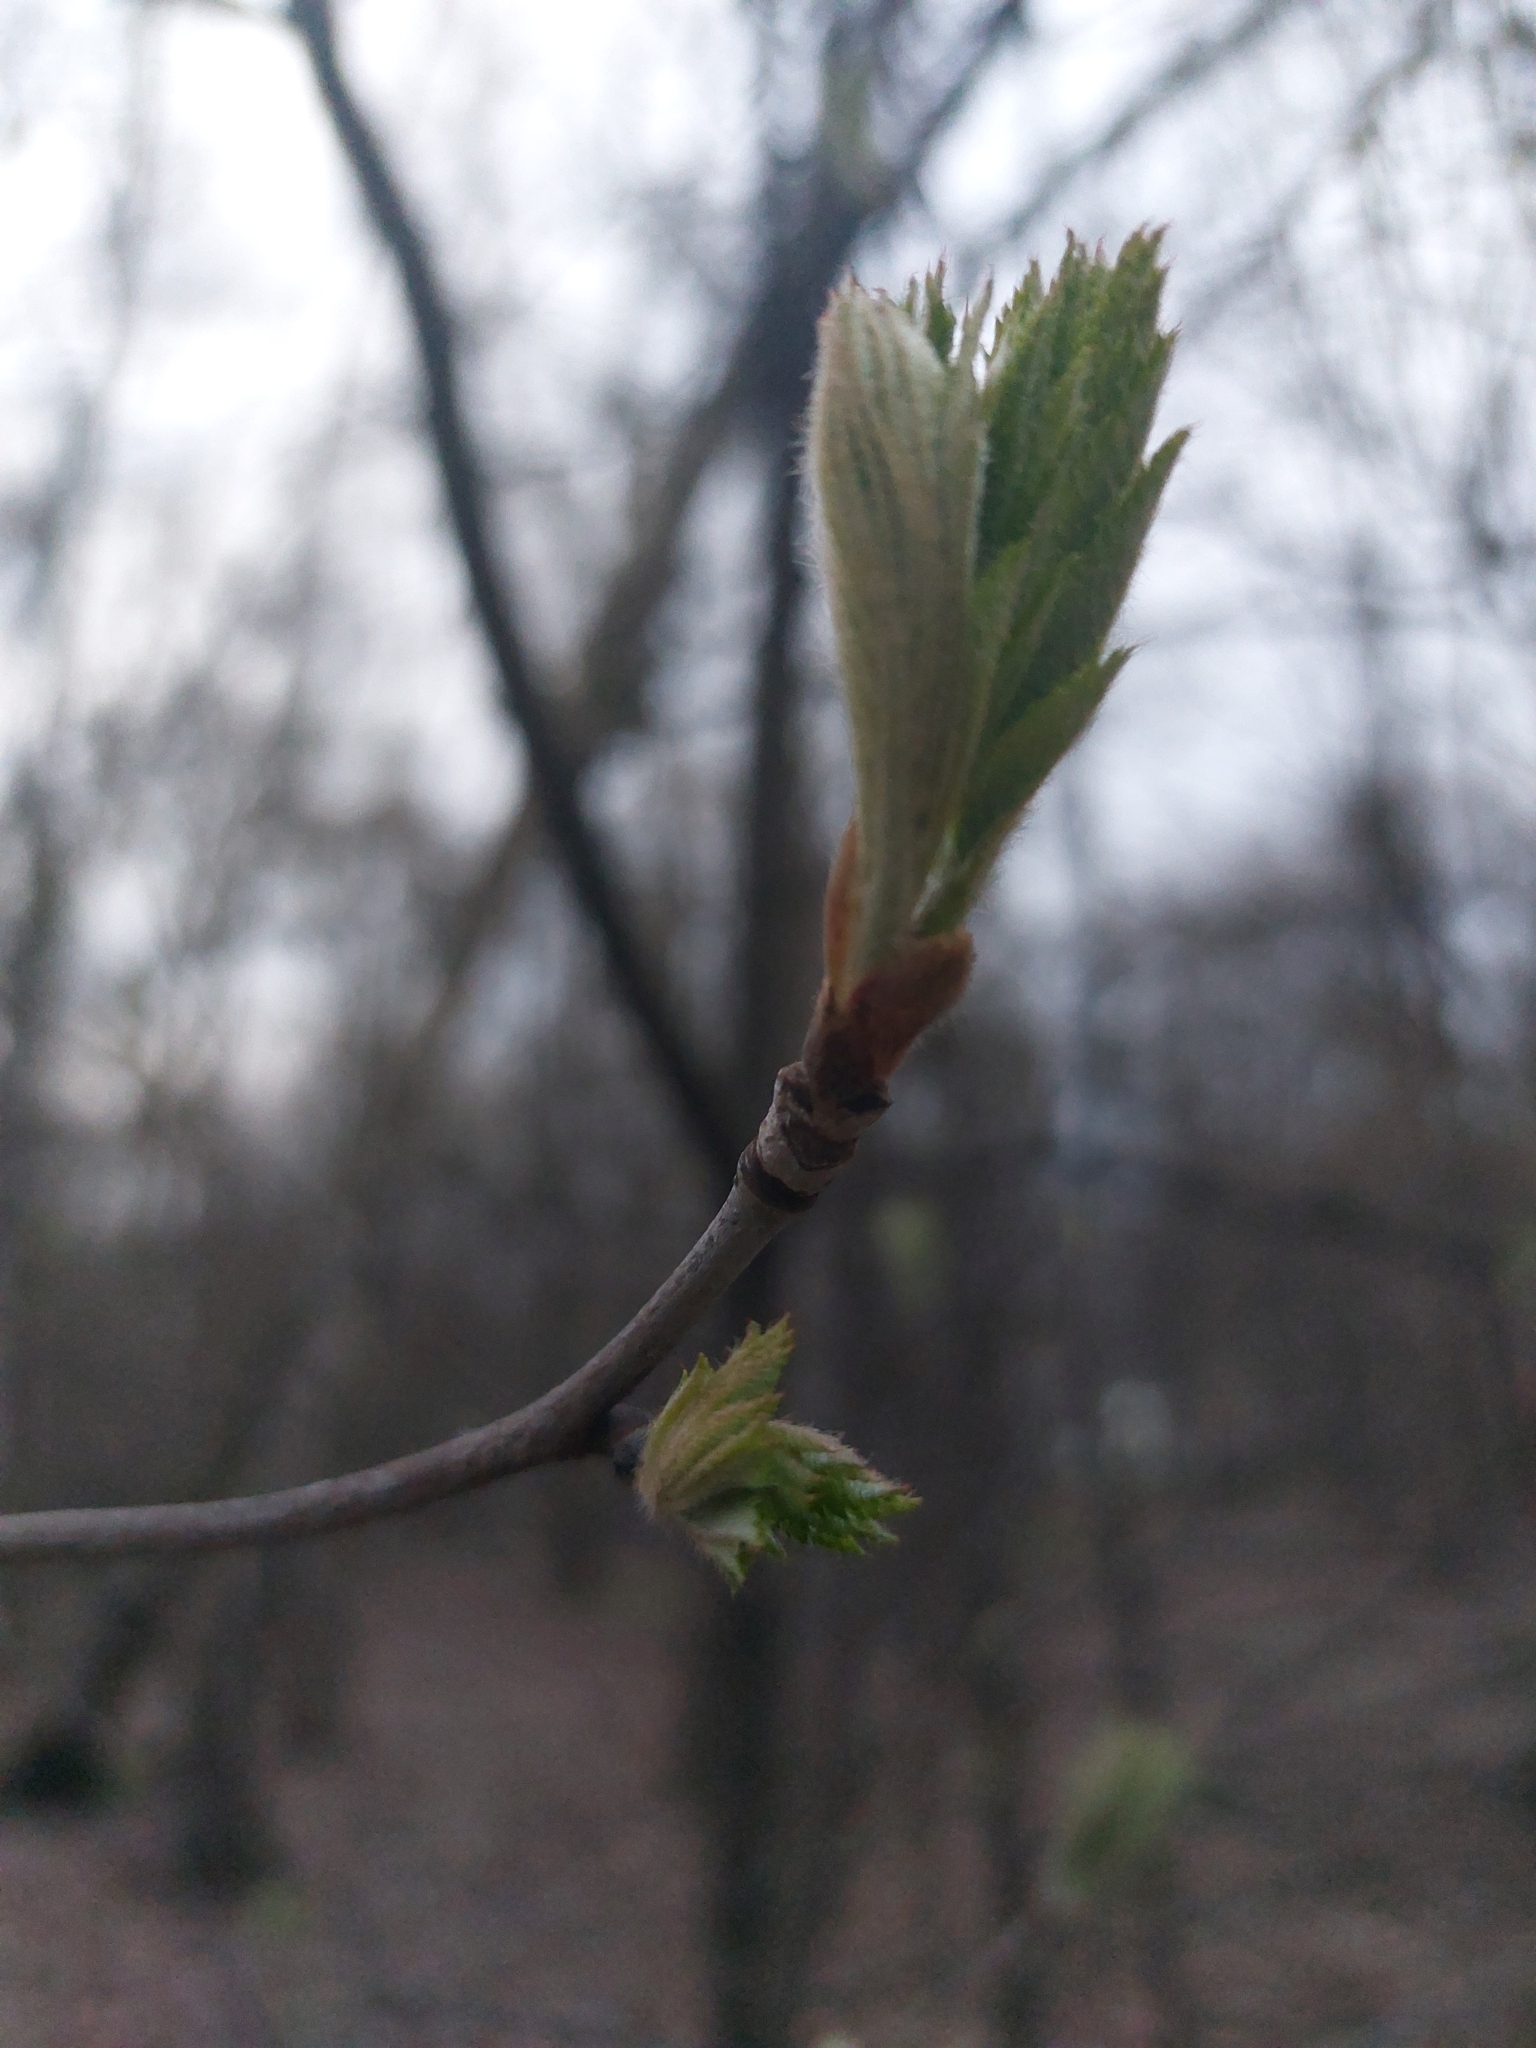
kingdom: Plantae
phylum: Tracheophyta
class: Magnoliopsida
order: Rosales
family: Rosaceae
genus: Sorbus
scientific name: Sorbus aucuparia
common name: Rowan
